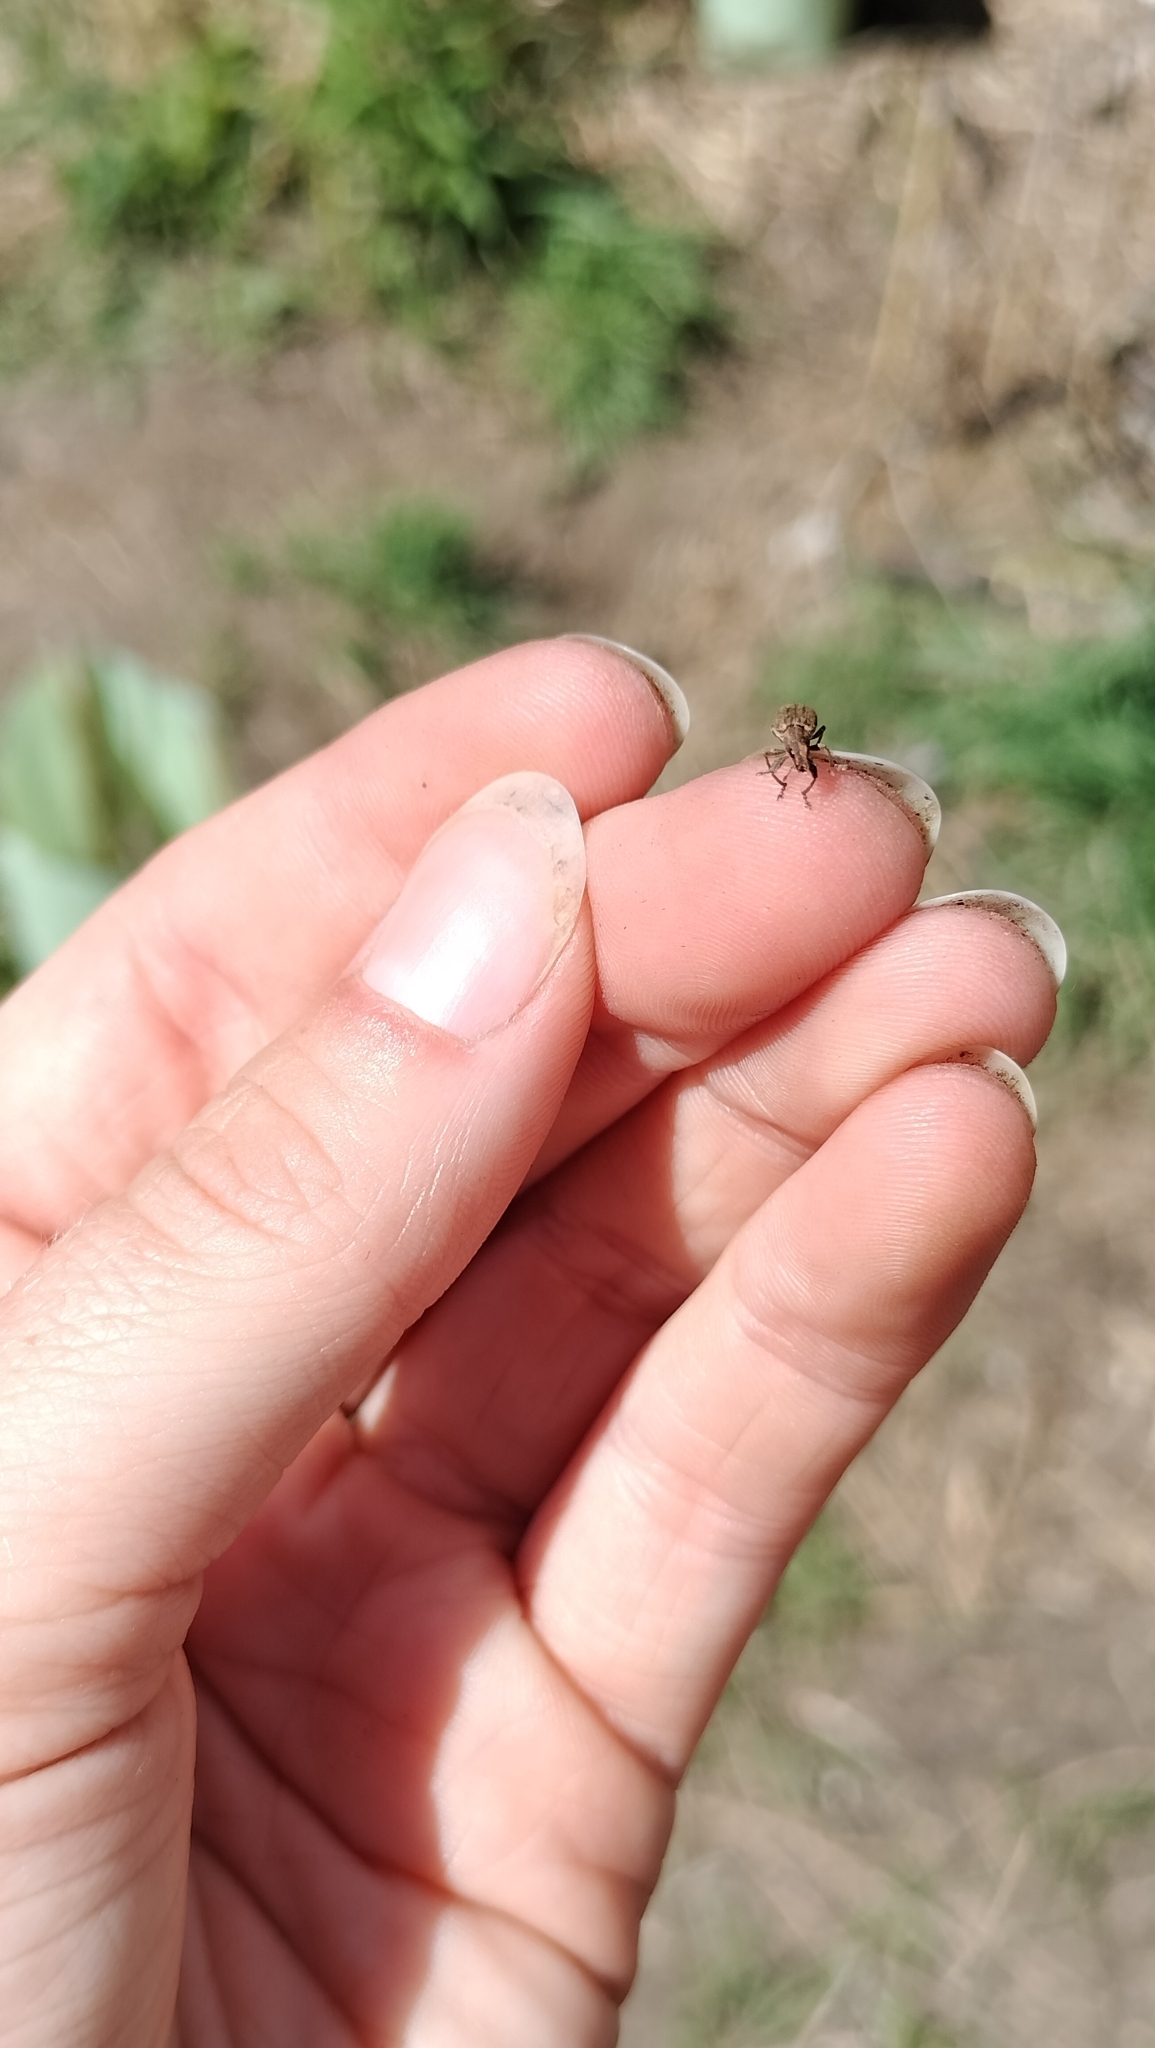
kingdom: Animalia
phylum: Arthropoda
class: Insecta
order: Coleoptera
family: Curculionidae
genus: Sitona
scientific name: Sitona obsoletus
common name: Weevil
